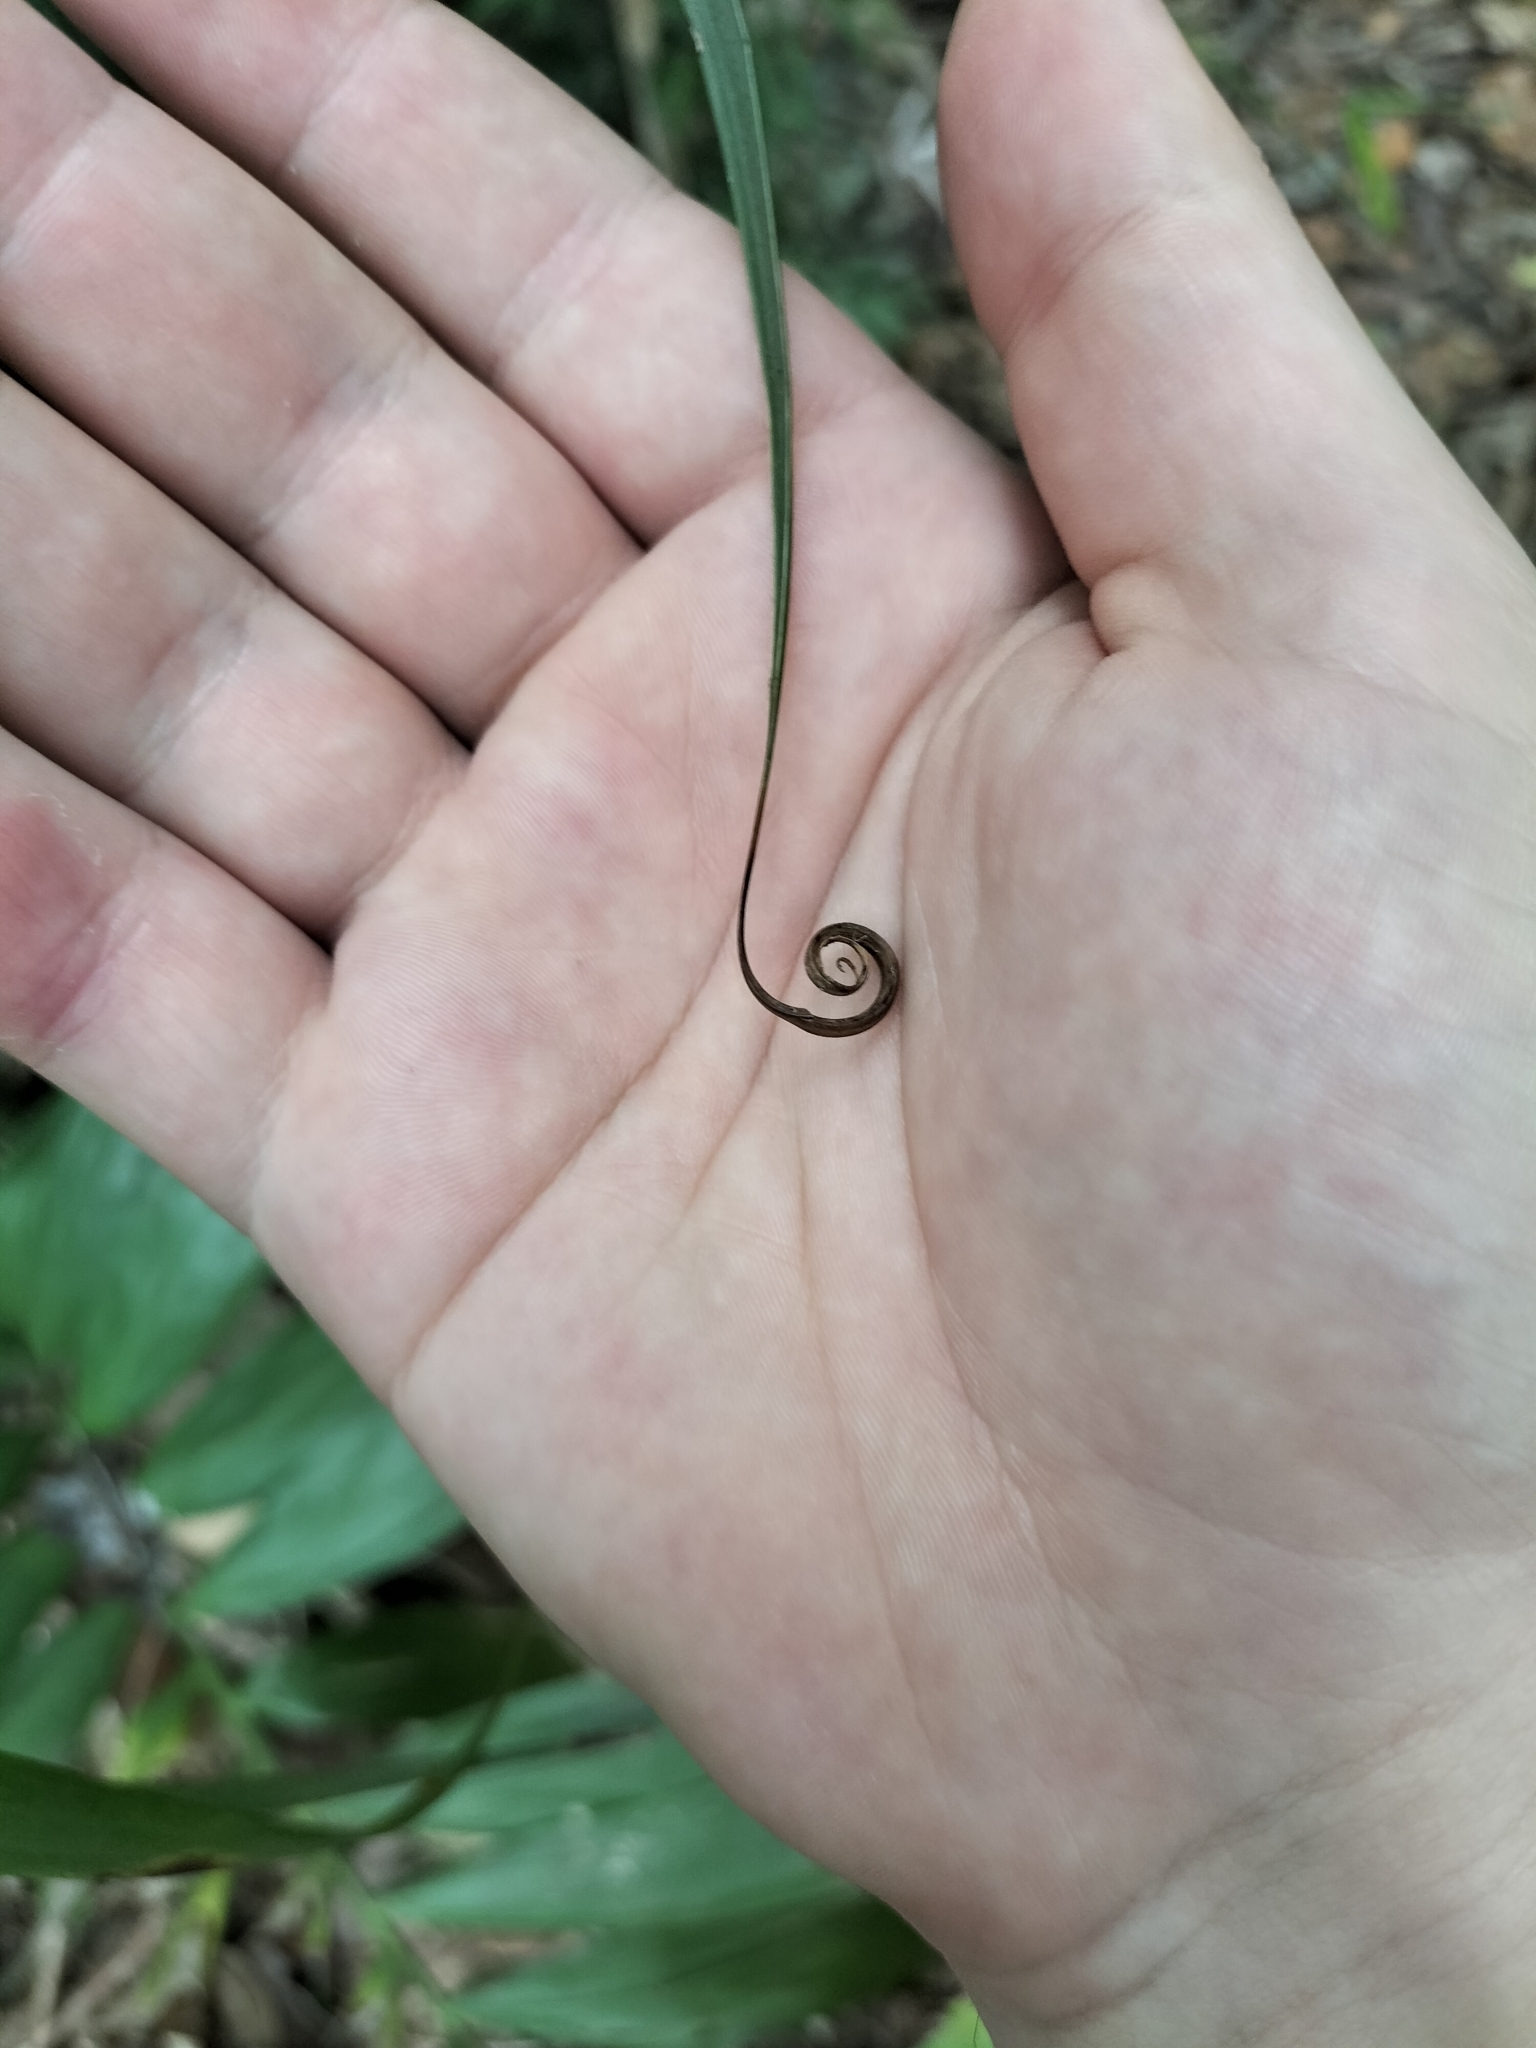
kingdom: Plantae
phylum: Tracheophyta
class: Liliopsida
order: Poales
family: Flagellariaceae
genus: Flagellaria
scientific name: Flagellaria indica
